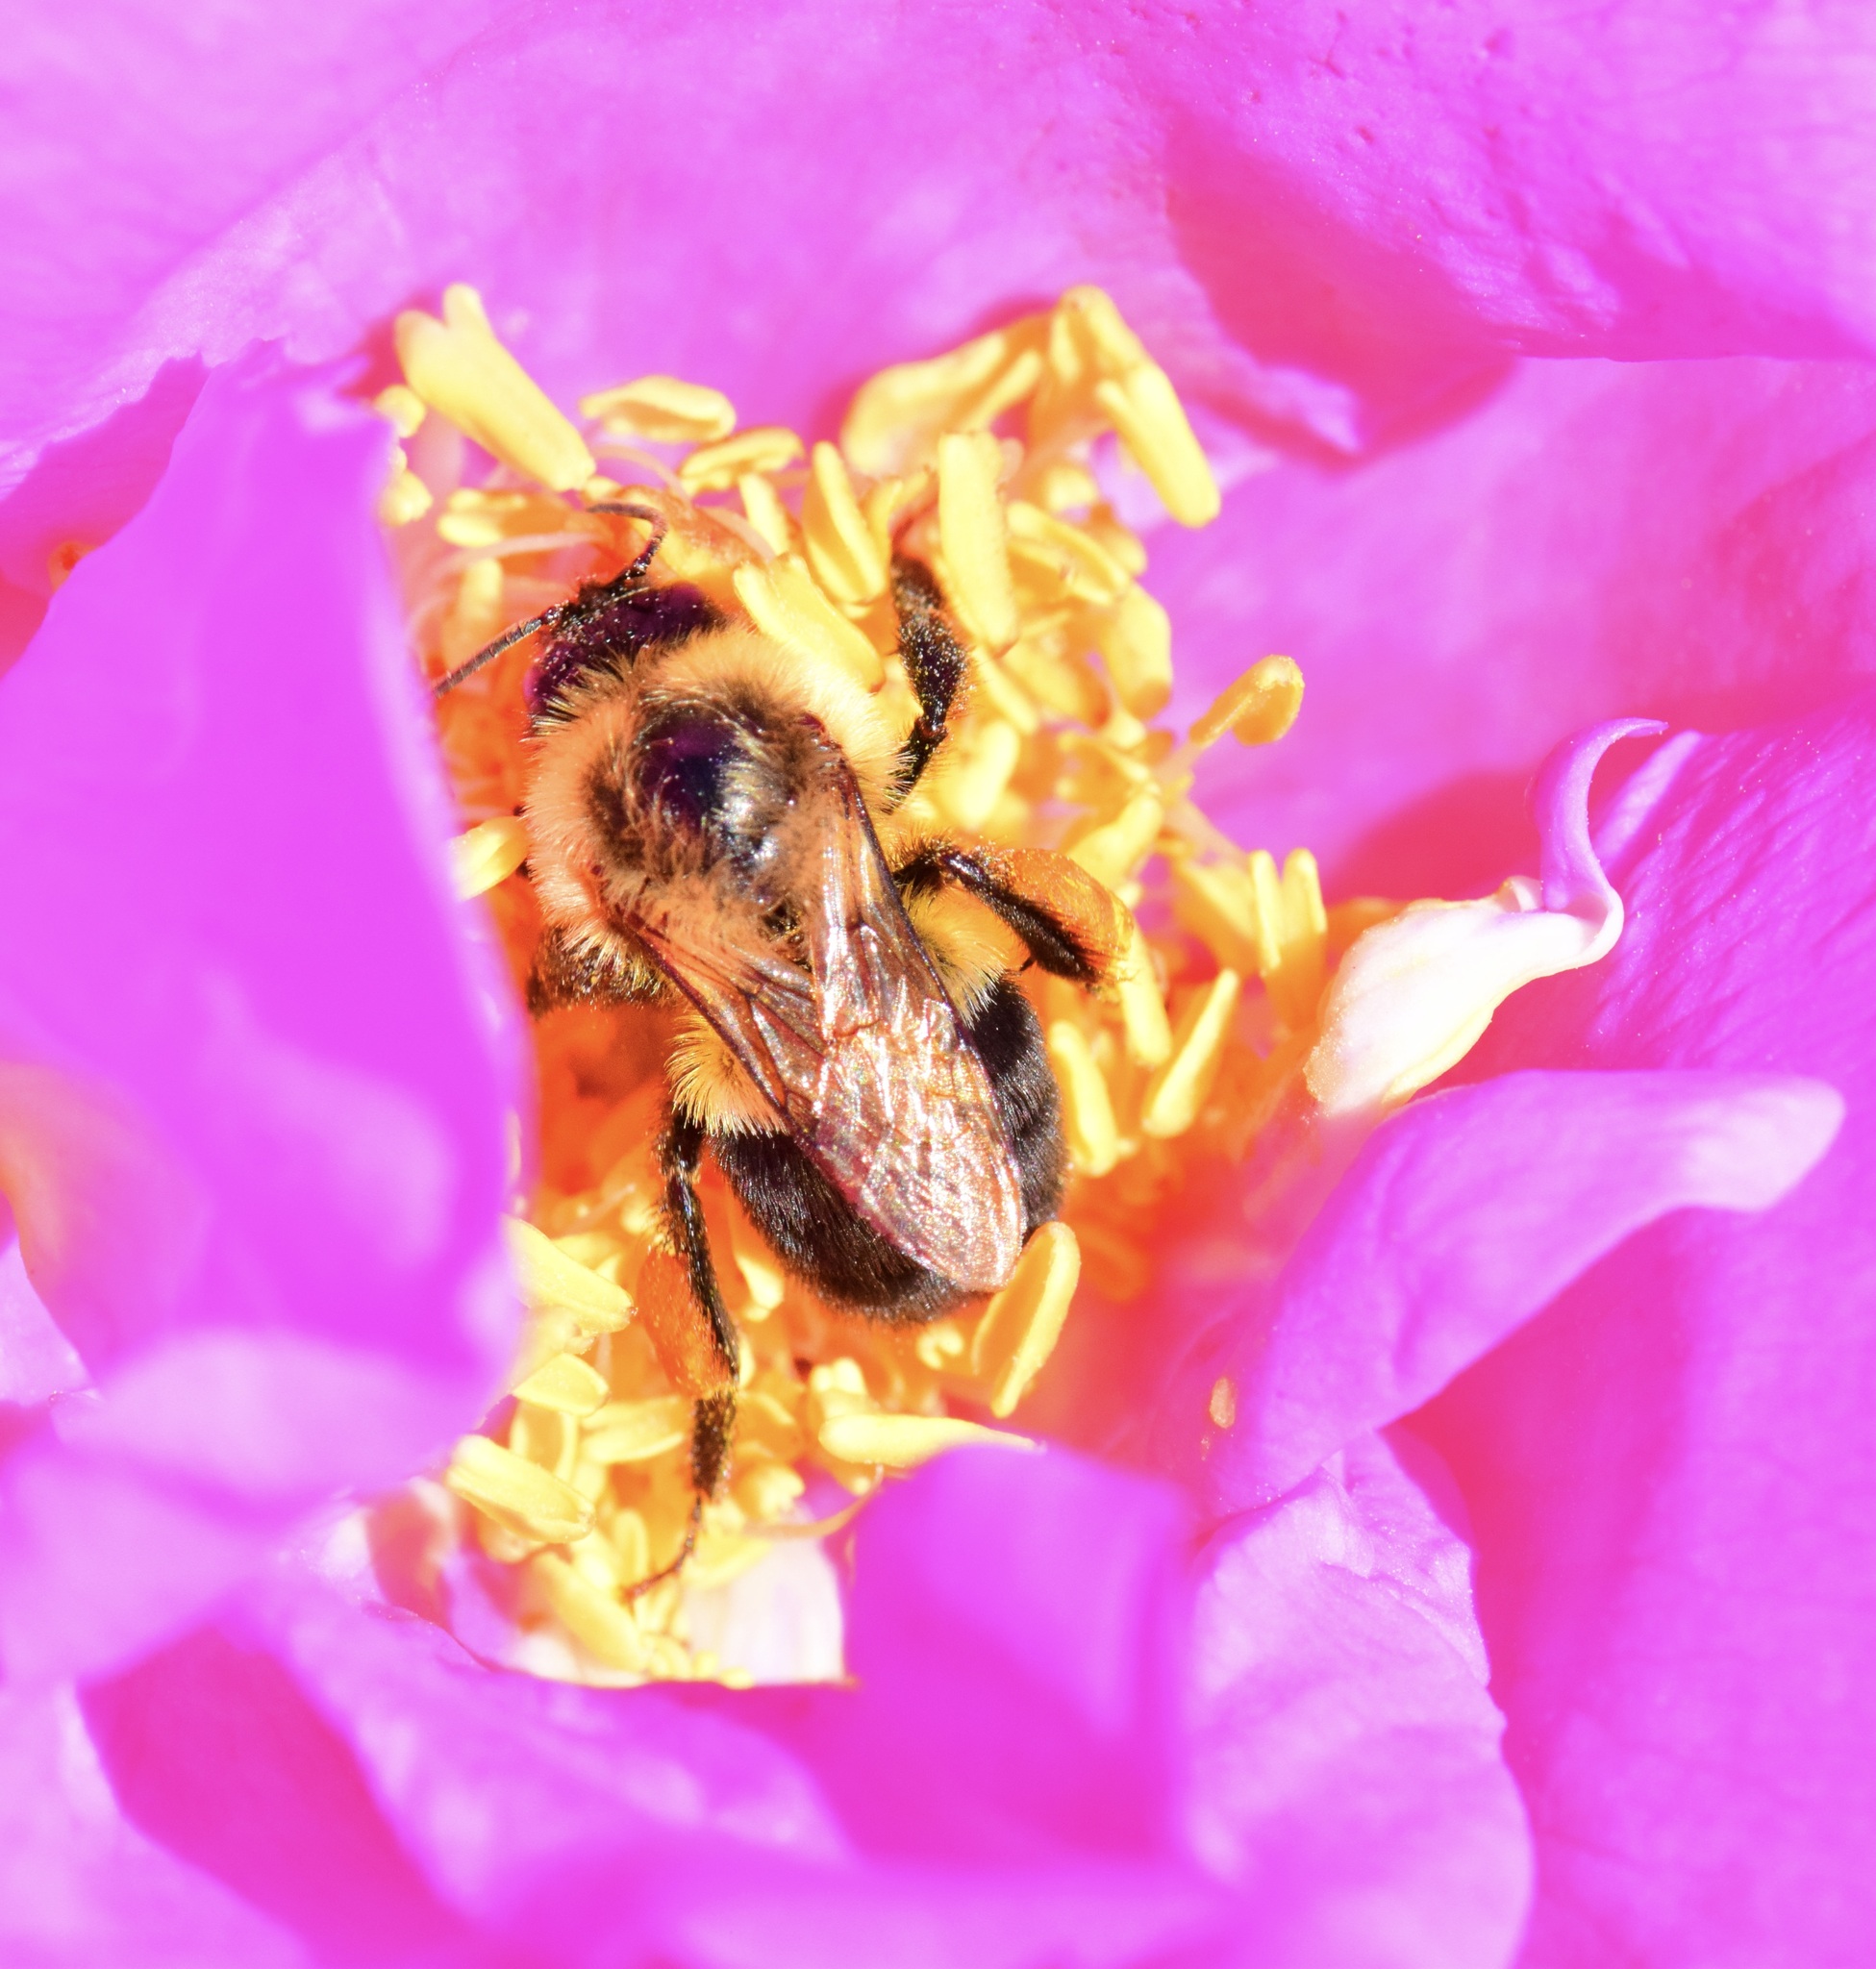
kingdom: Animalia
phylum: Arthropoda
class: Insecta
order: Hymenoptera
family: Apidae
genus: Bombus
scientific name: Bombus impatiens
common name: Common eastern bumble bee
